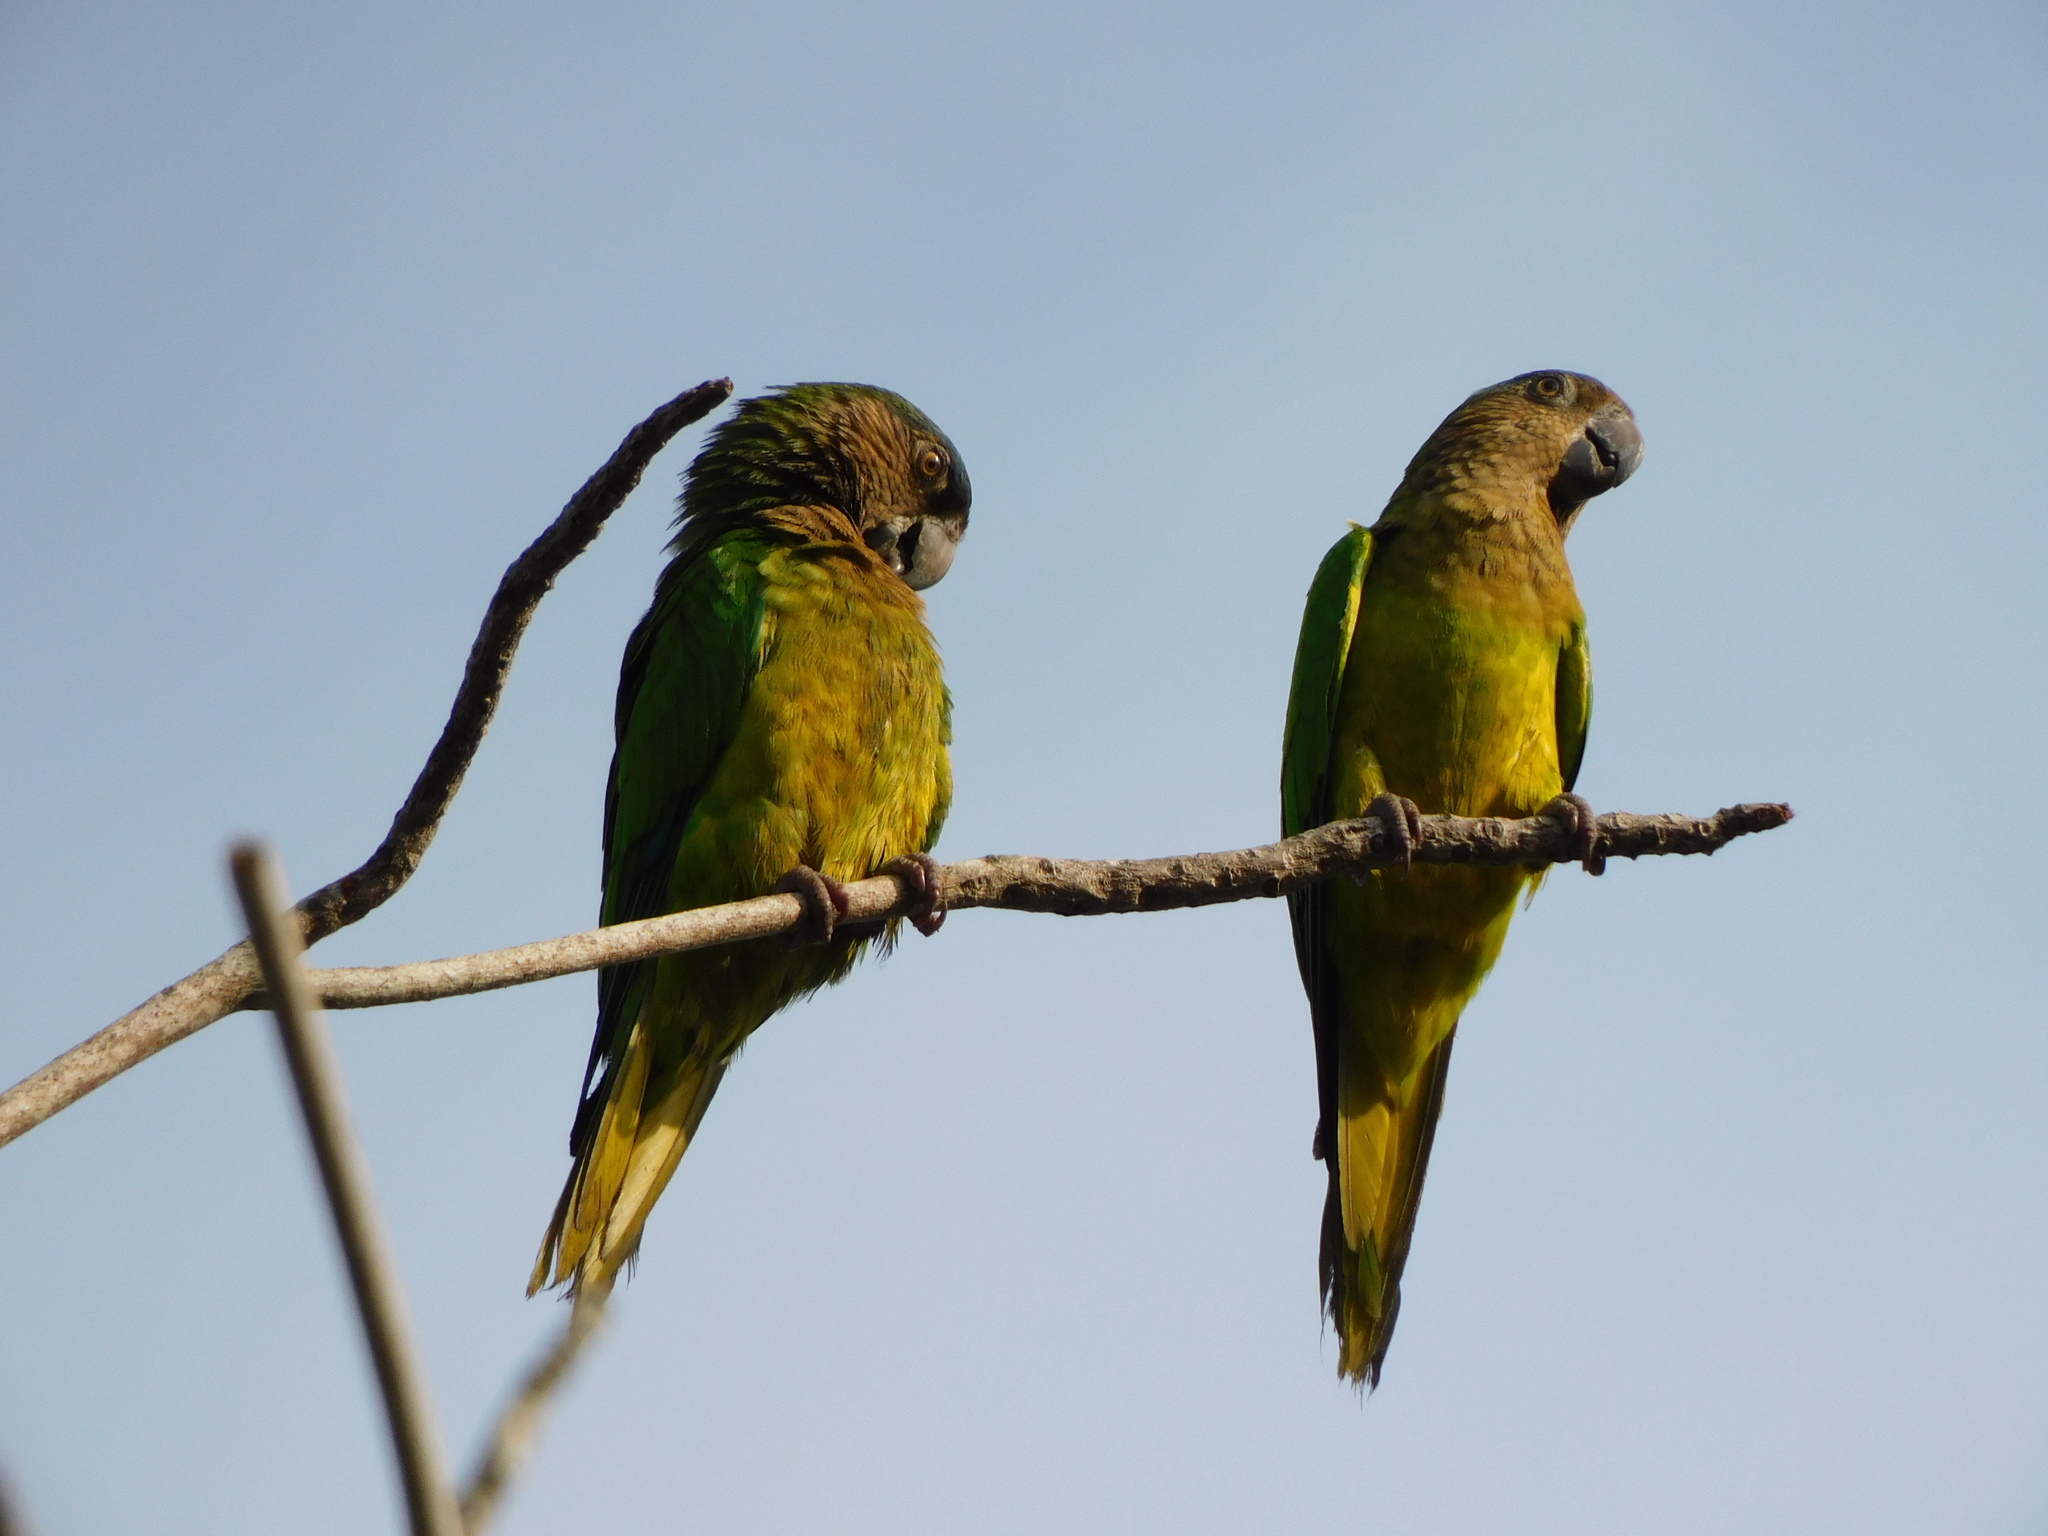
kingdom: Animalia
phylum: Chordata
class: Aves
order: Psittaciformes
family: Psittacidae
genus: Aratinga
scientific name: Aratinga pertinax
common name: Brown-throated parakeet
